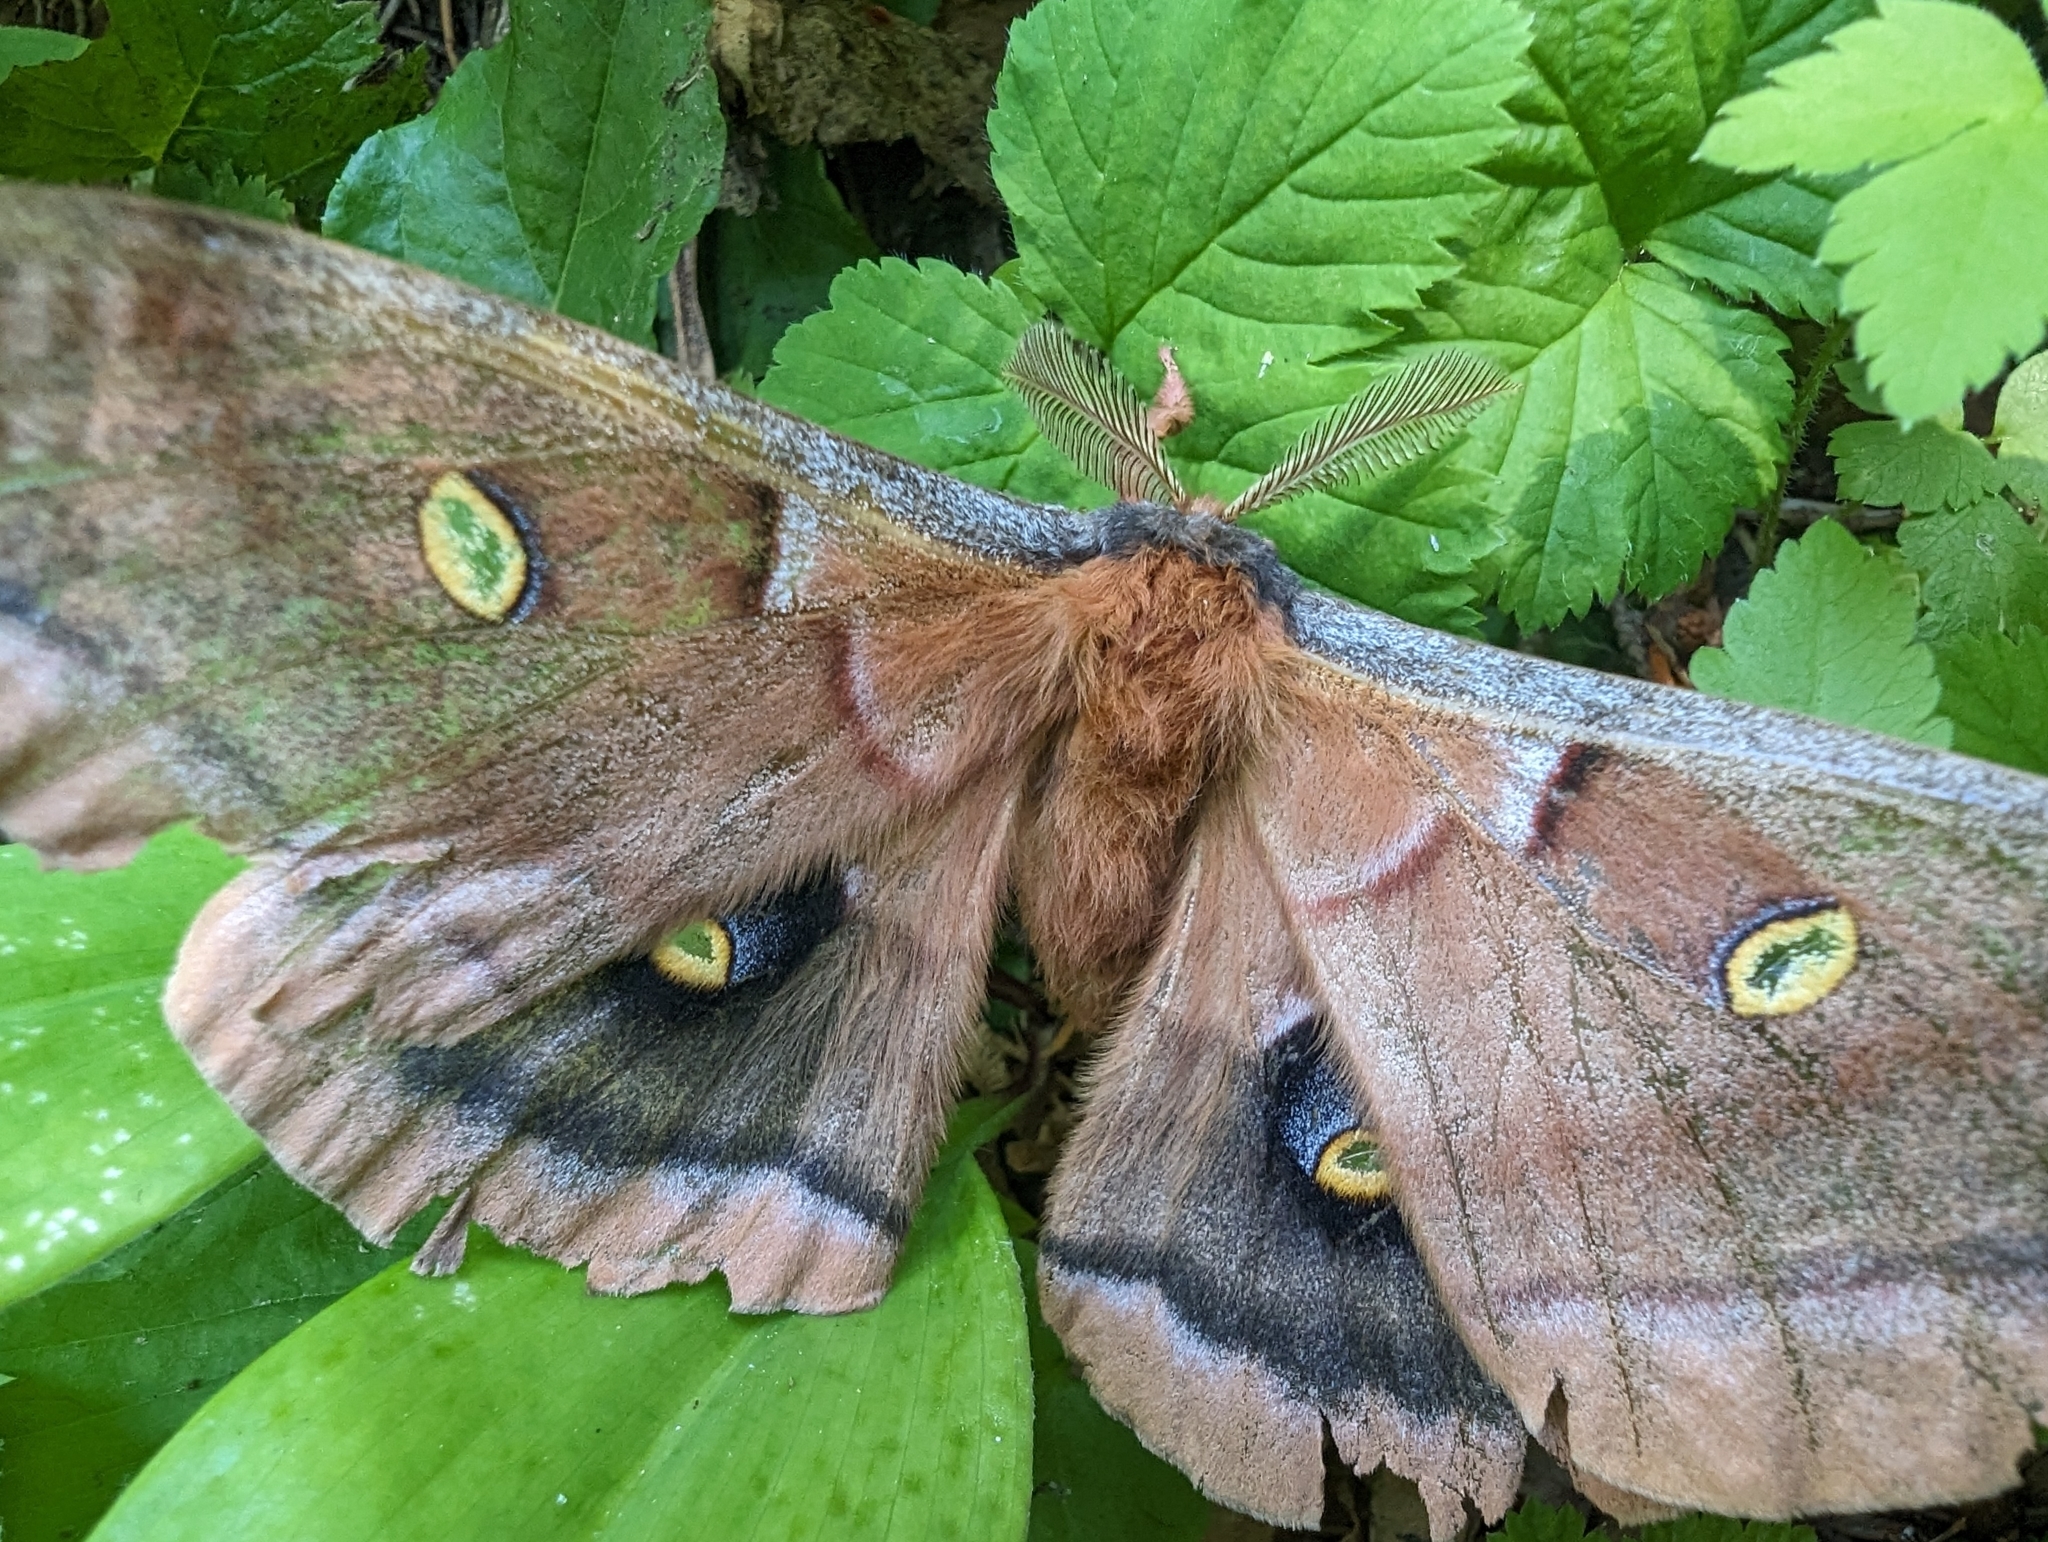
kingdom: Animalia
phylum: Arthropoda
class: Insecta
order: Lepidoptera
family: Saturniidae
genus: Antheraea
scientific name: Antheraea polyphemus
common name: Polyphemus moth
